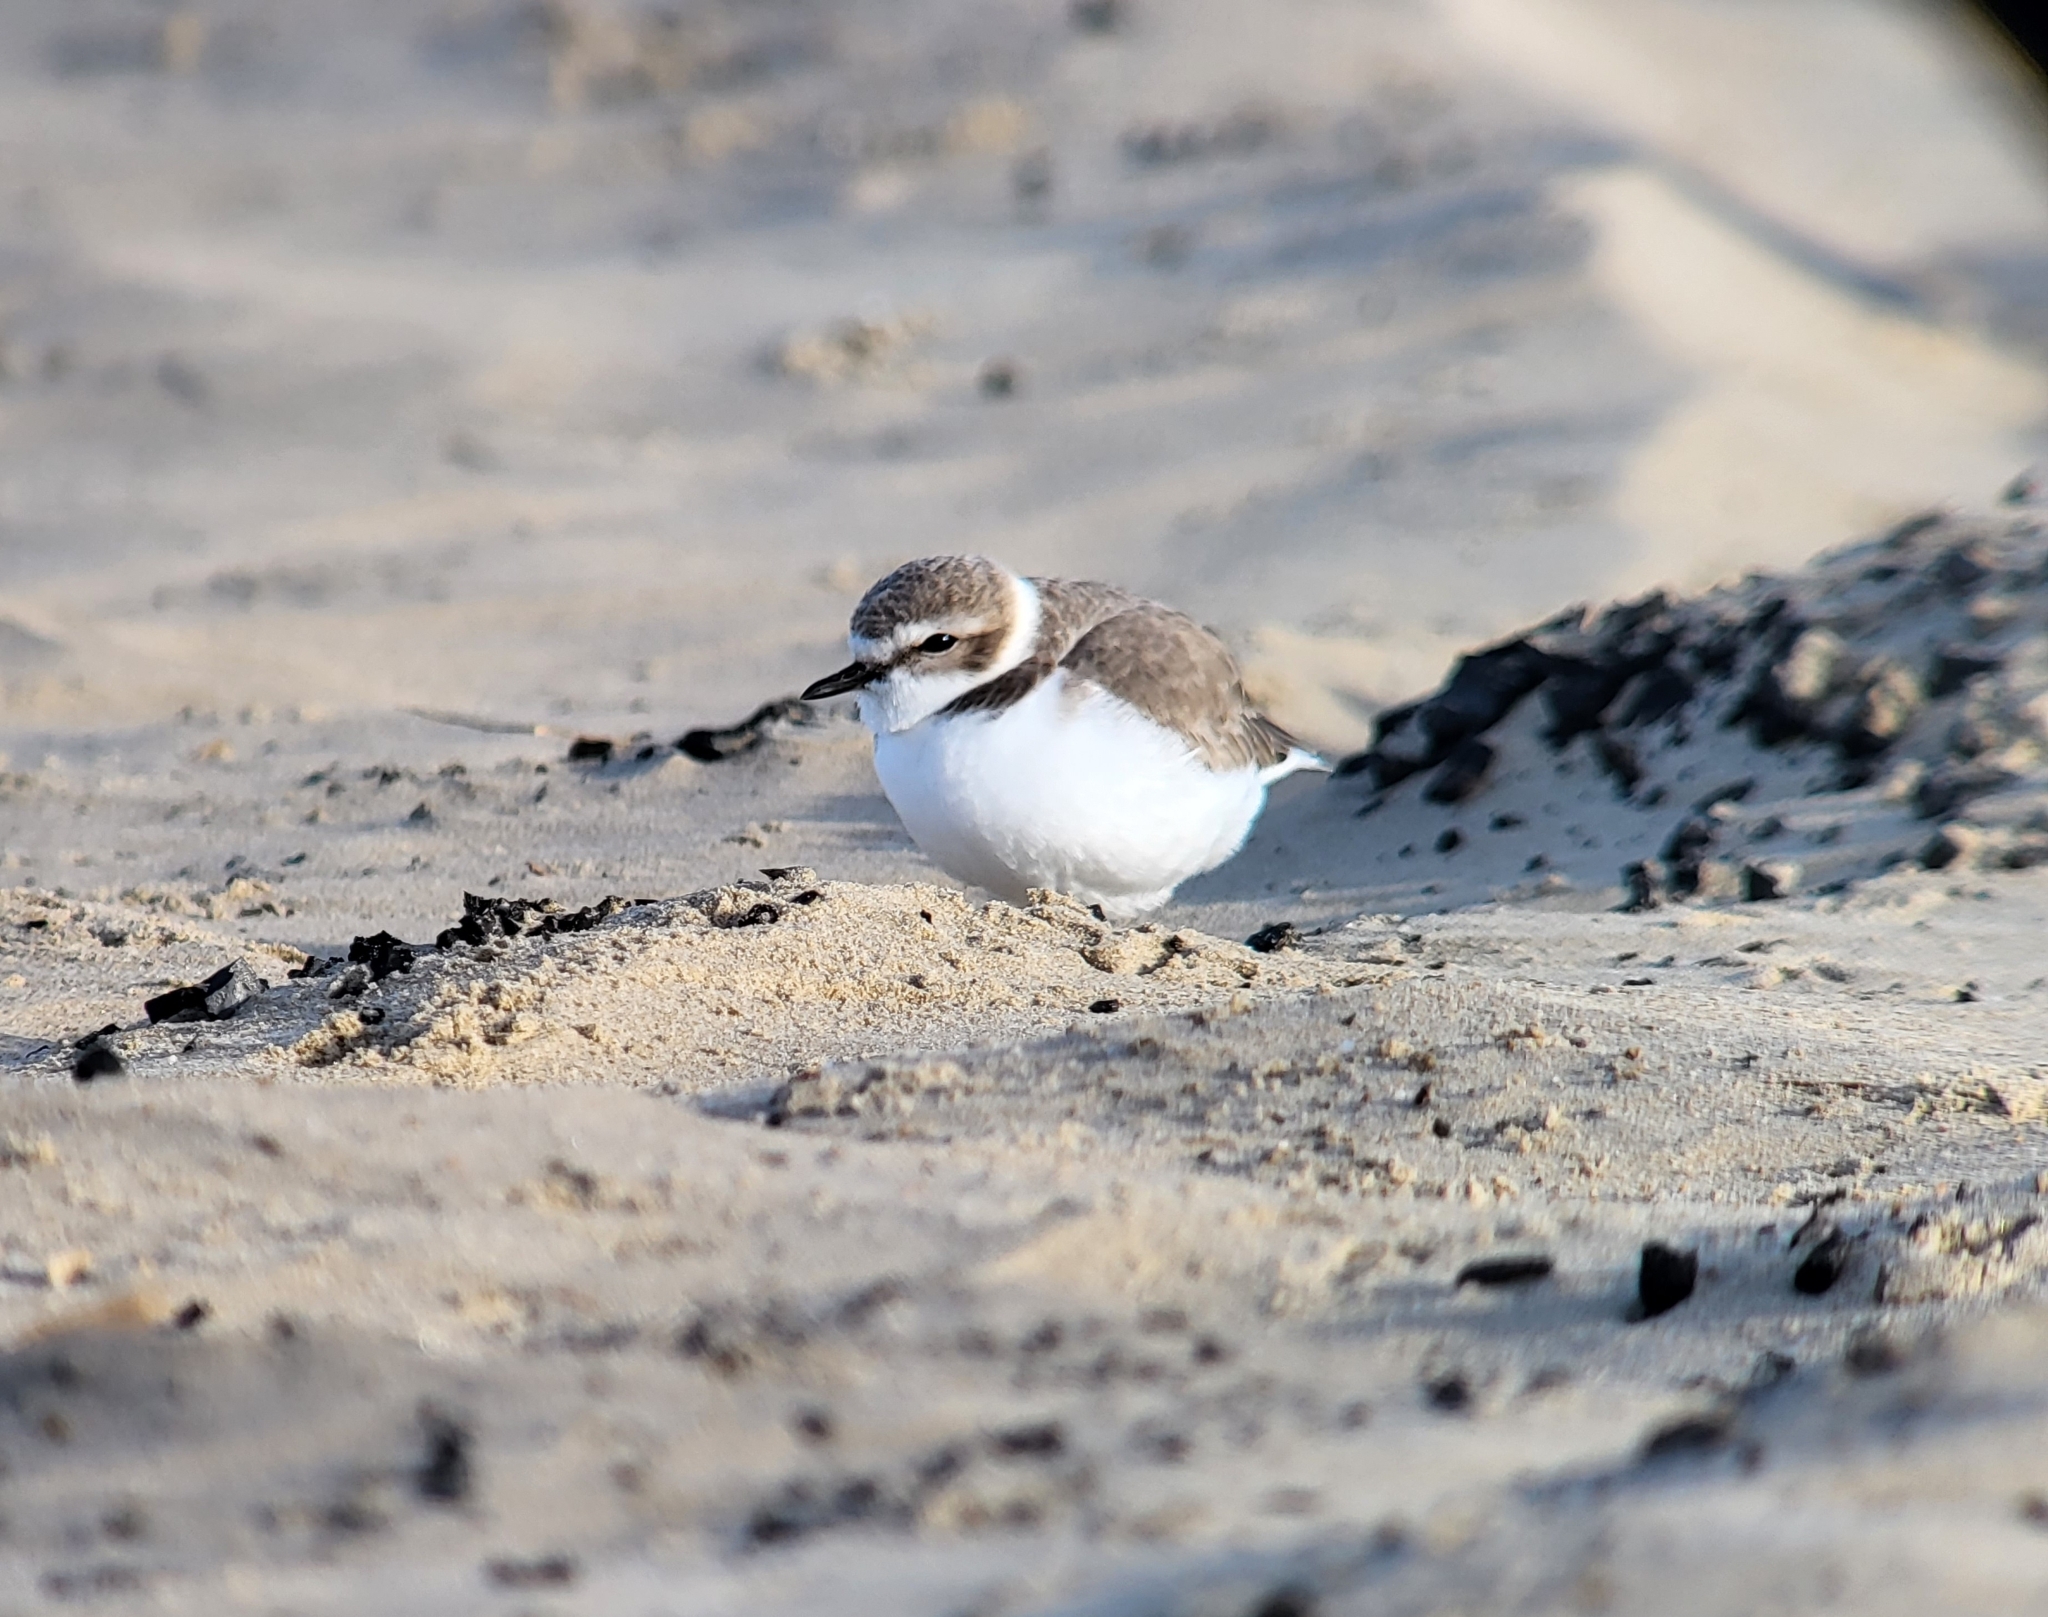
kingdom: Animalia
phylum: Chordata
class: Aves
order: Charadriiformes
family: Charadriidae
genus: Anarhynchus
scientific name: Anarhynchus
